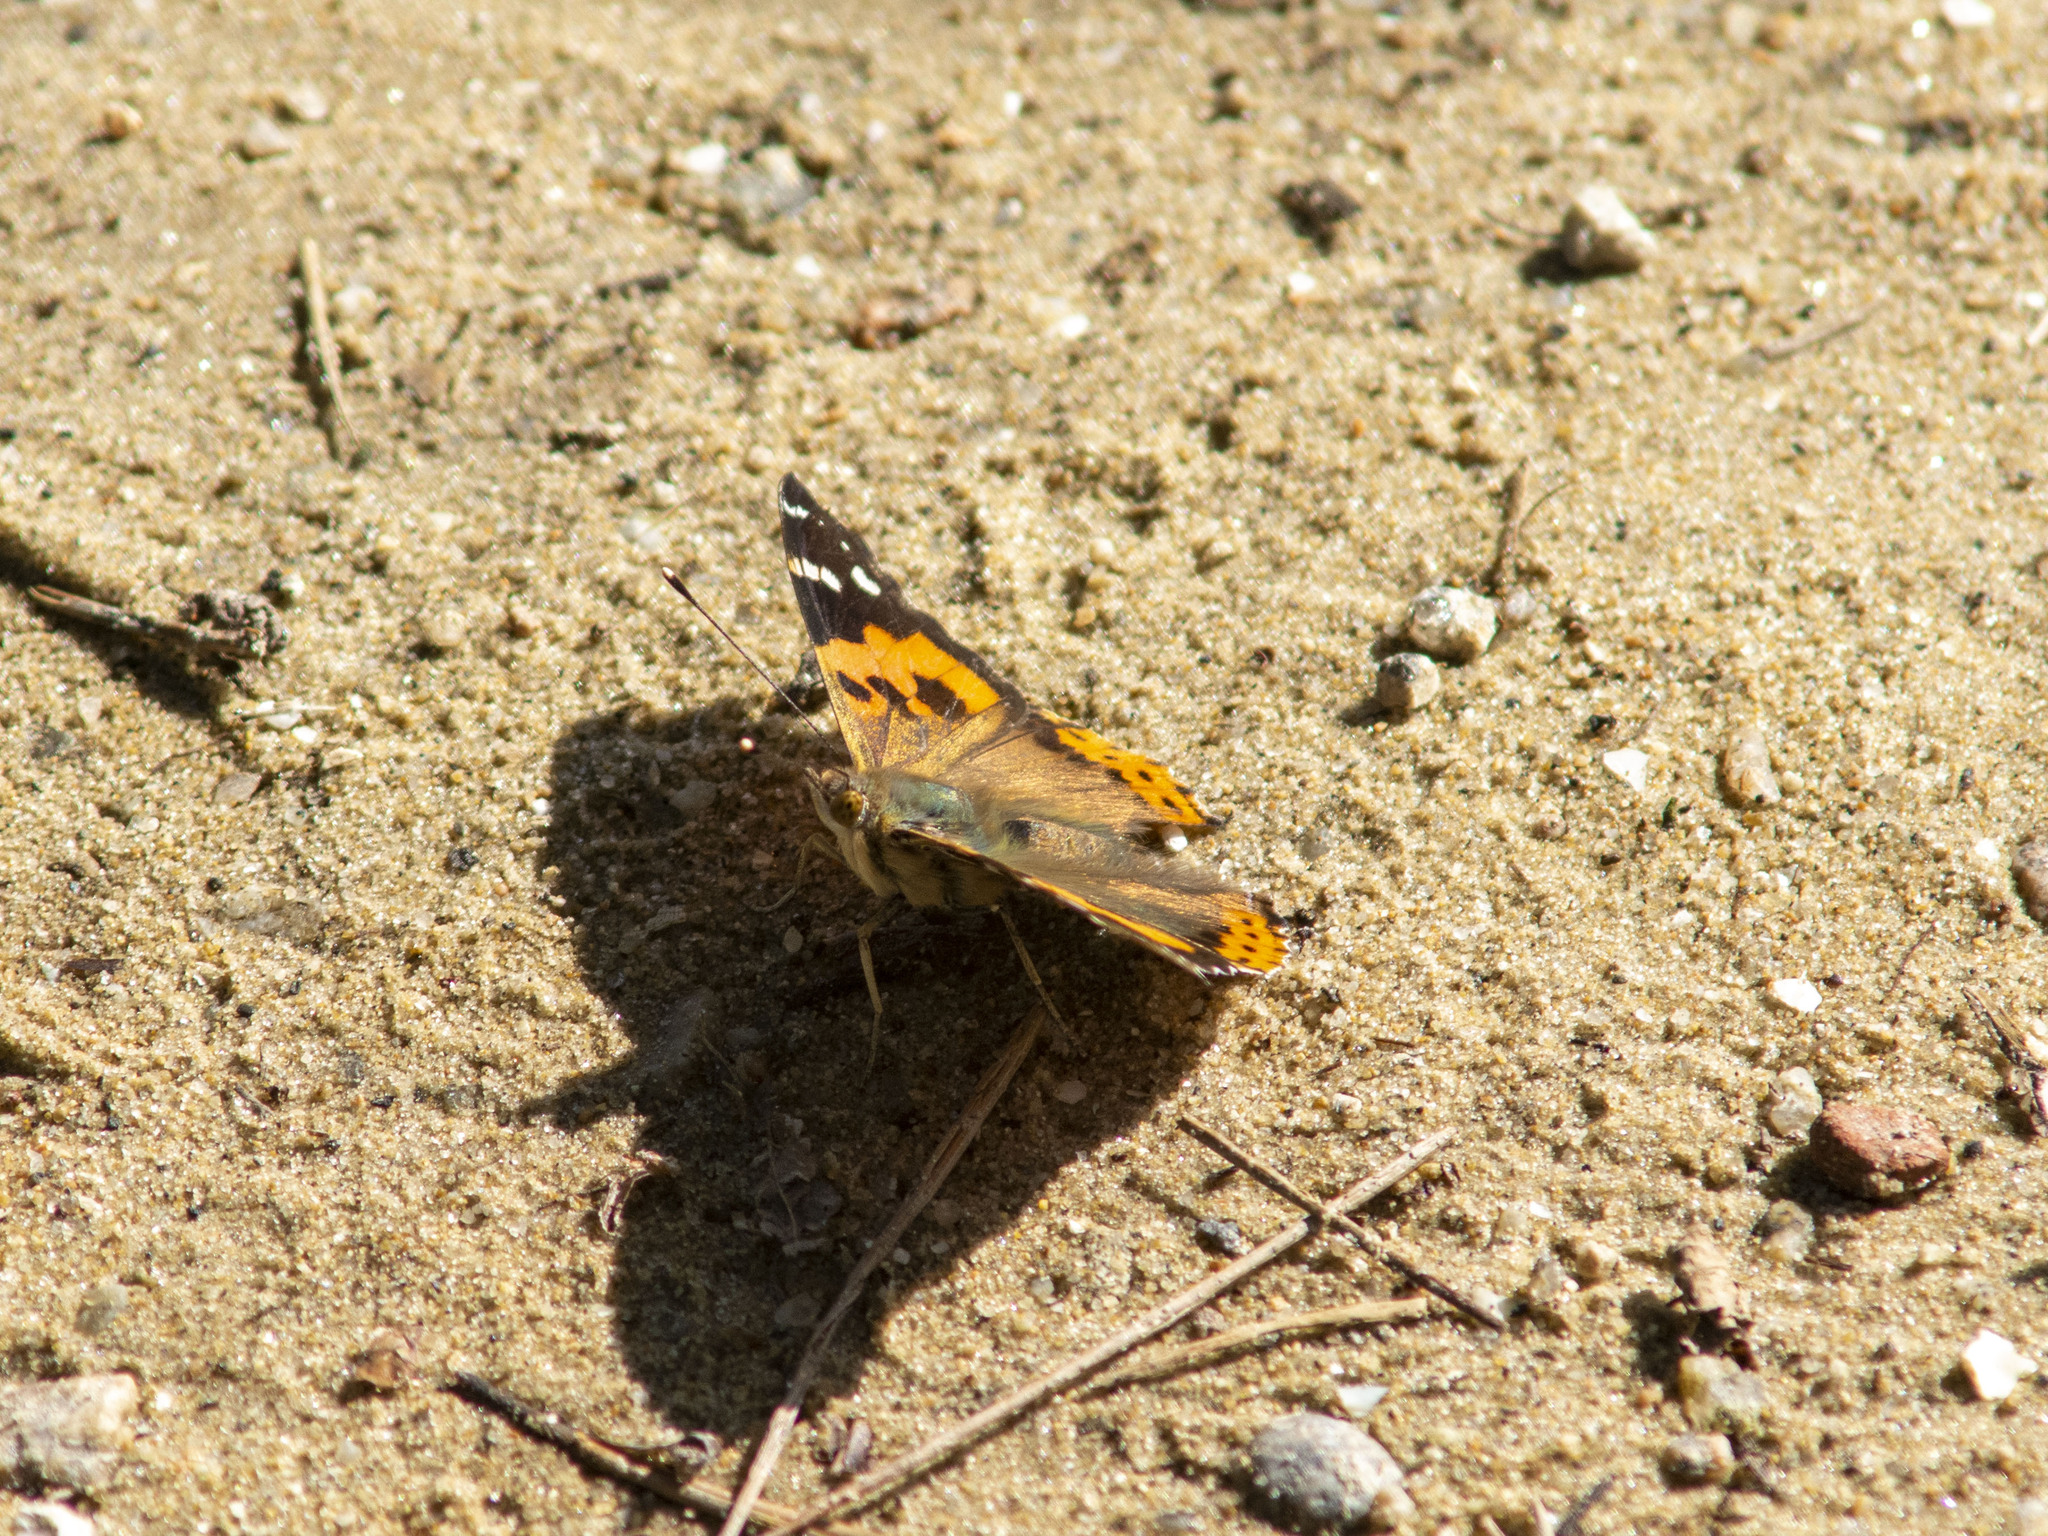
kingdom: Animalia
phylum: Arthropoda
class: Insecta
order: Lepidoptera
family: Nymphalidae
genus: Vanessa
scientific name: Vanessa indica
